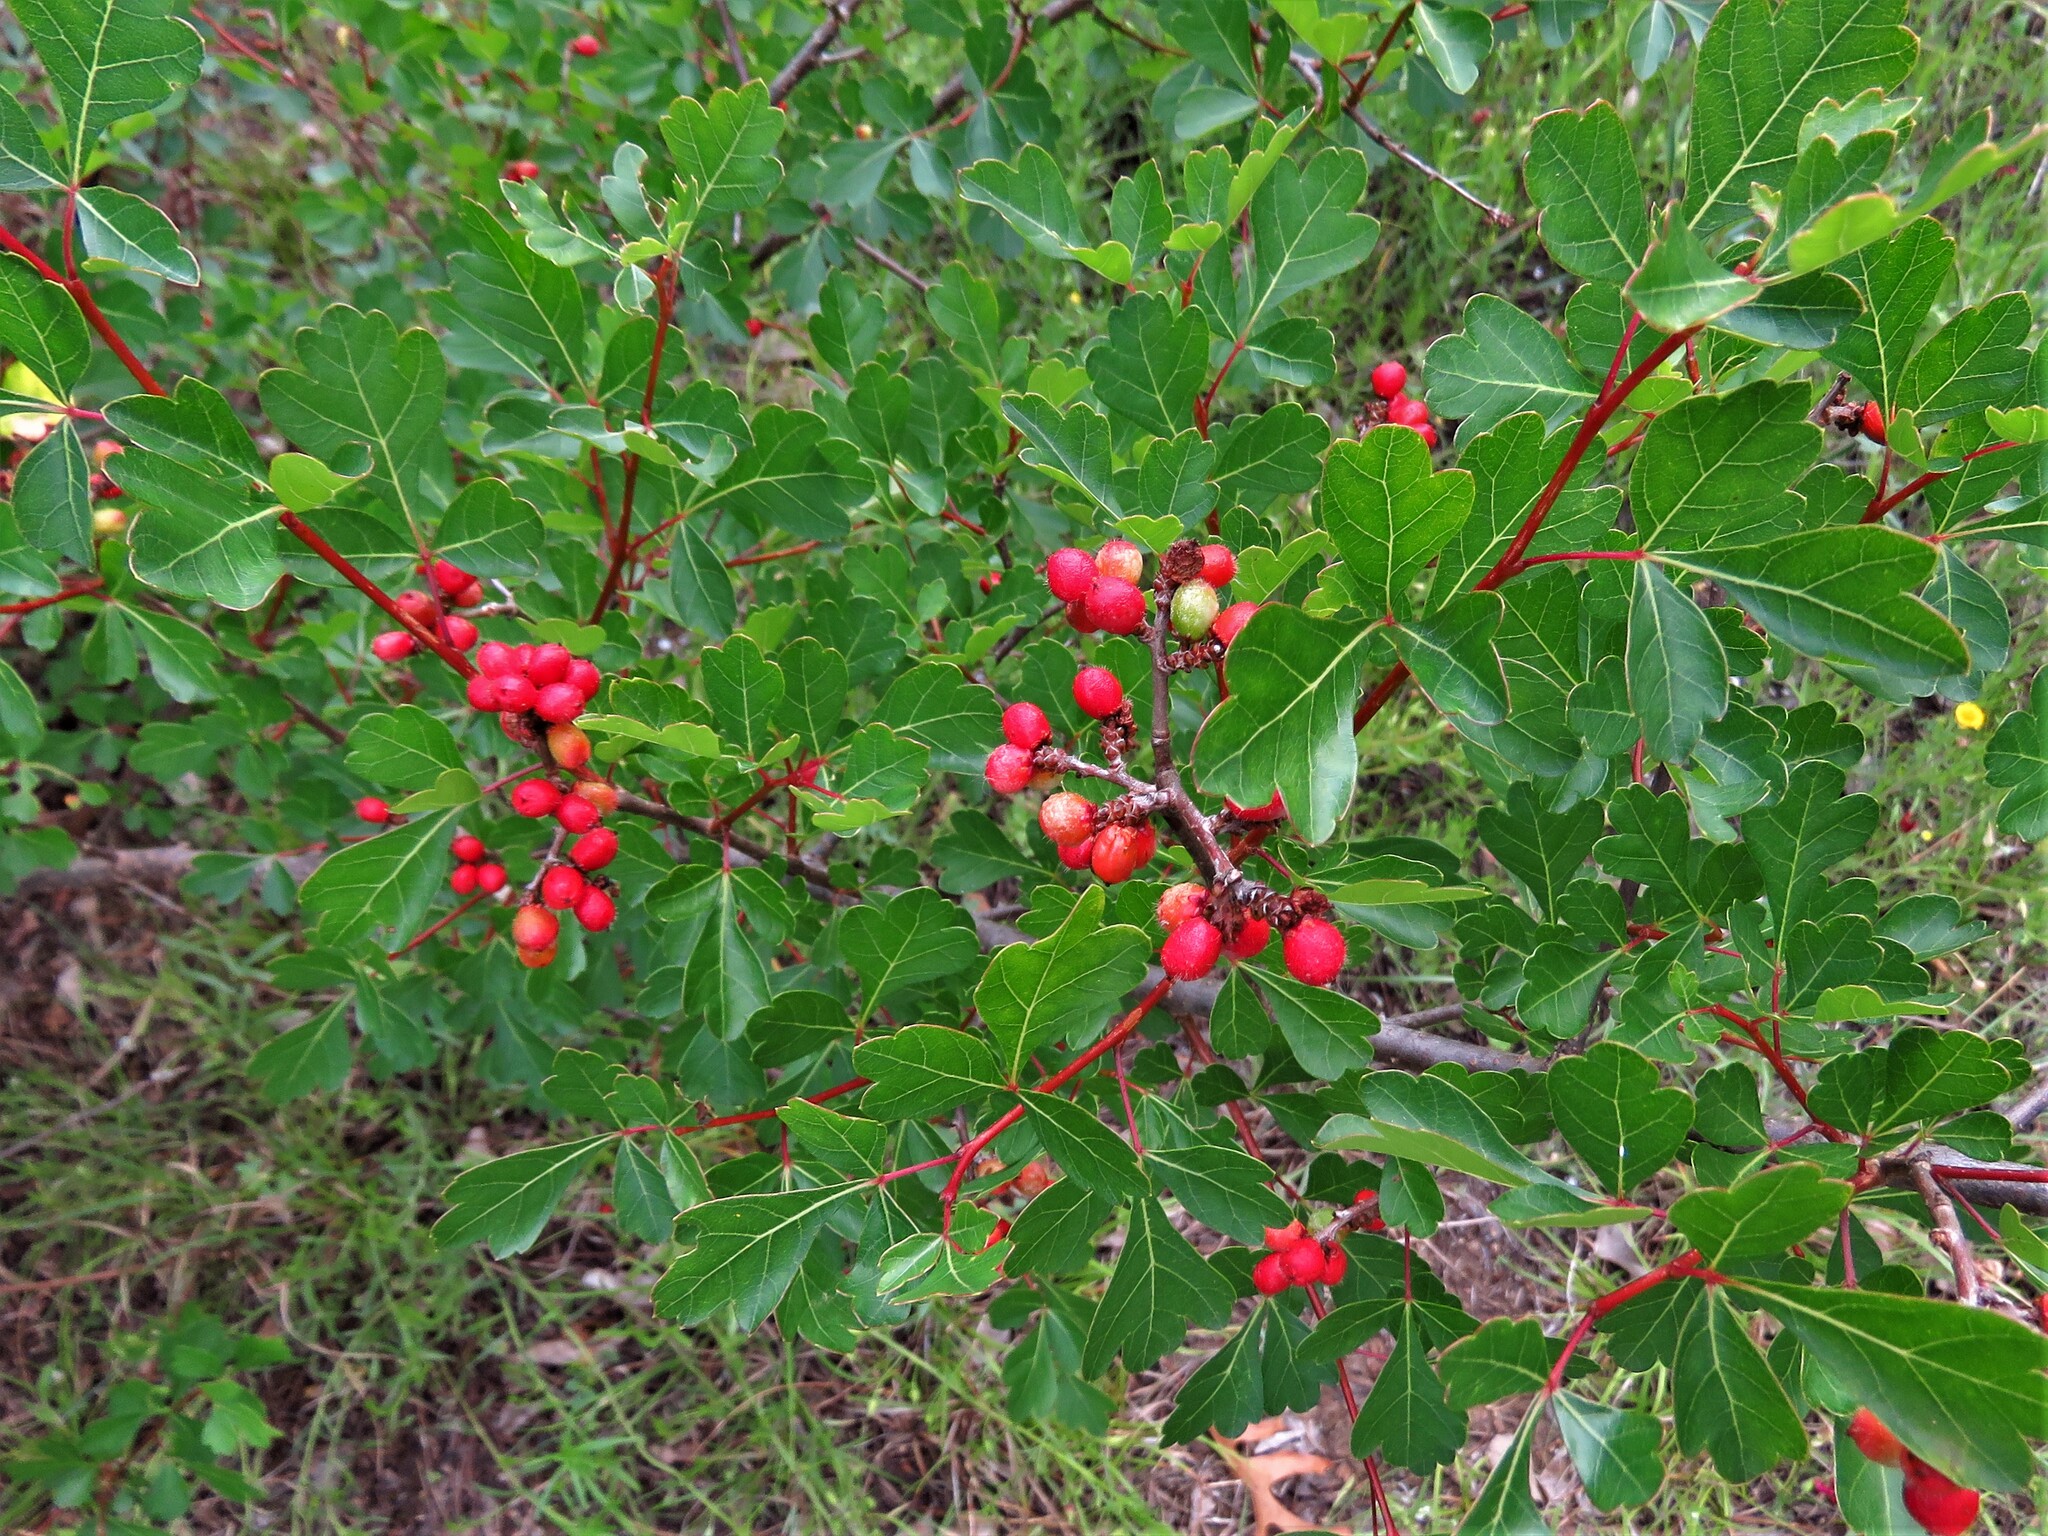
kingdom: Plantae
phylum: Tracheophyta
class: Magnoliopsida
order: Sapindales
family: Anacardiaceae
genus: Rhus
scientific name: Rhus aromatica
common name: Aromatic sumac
